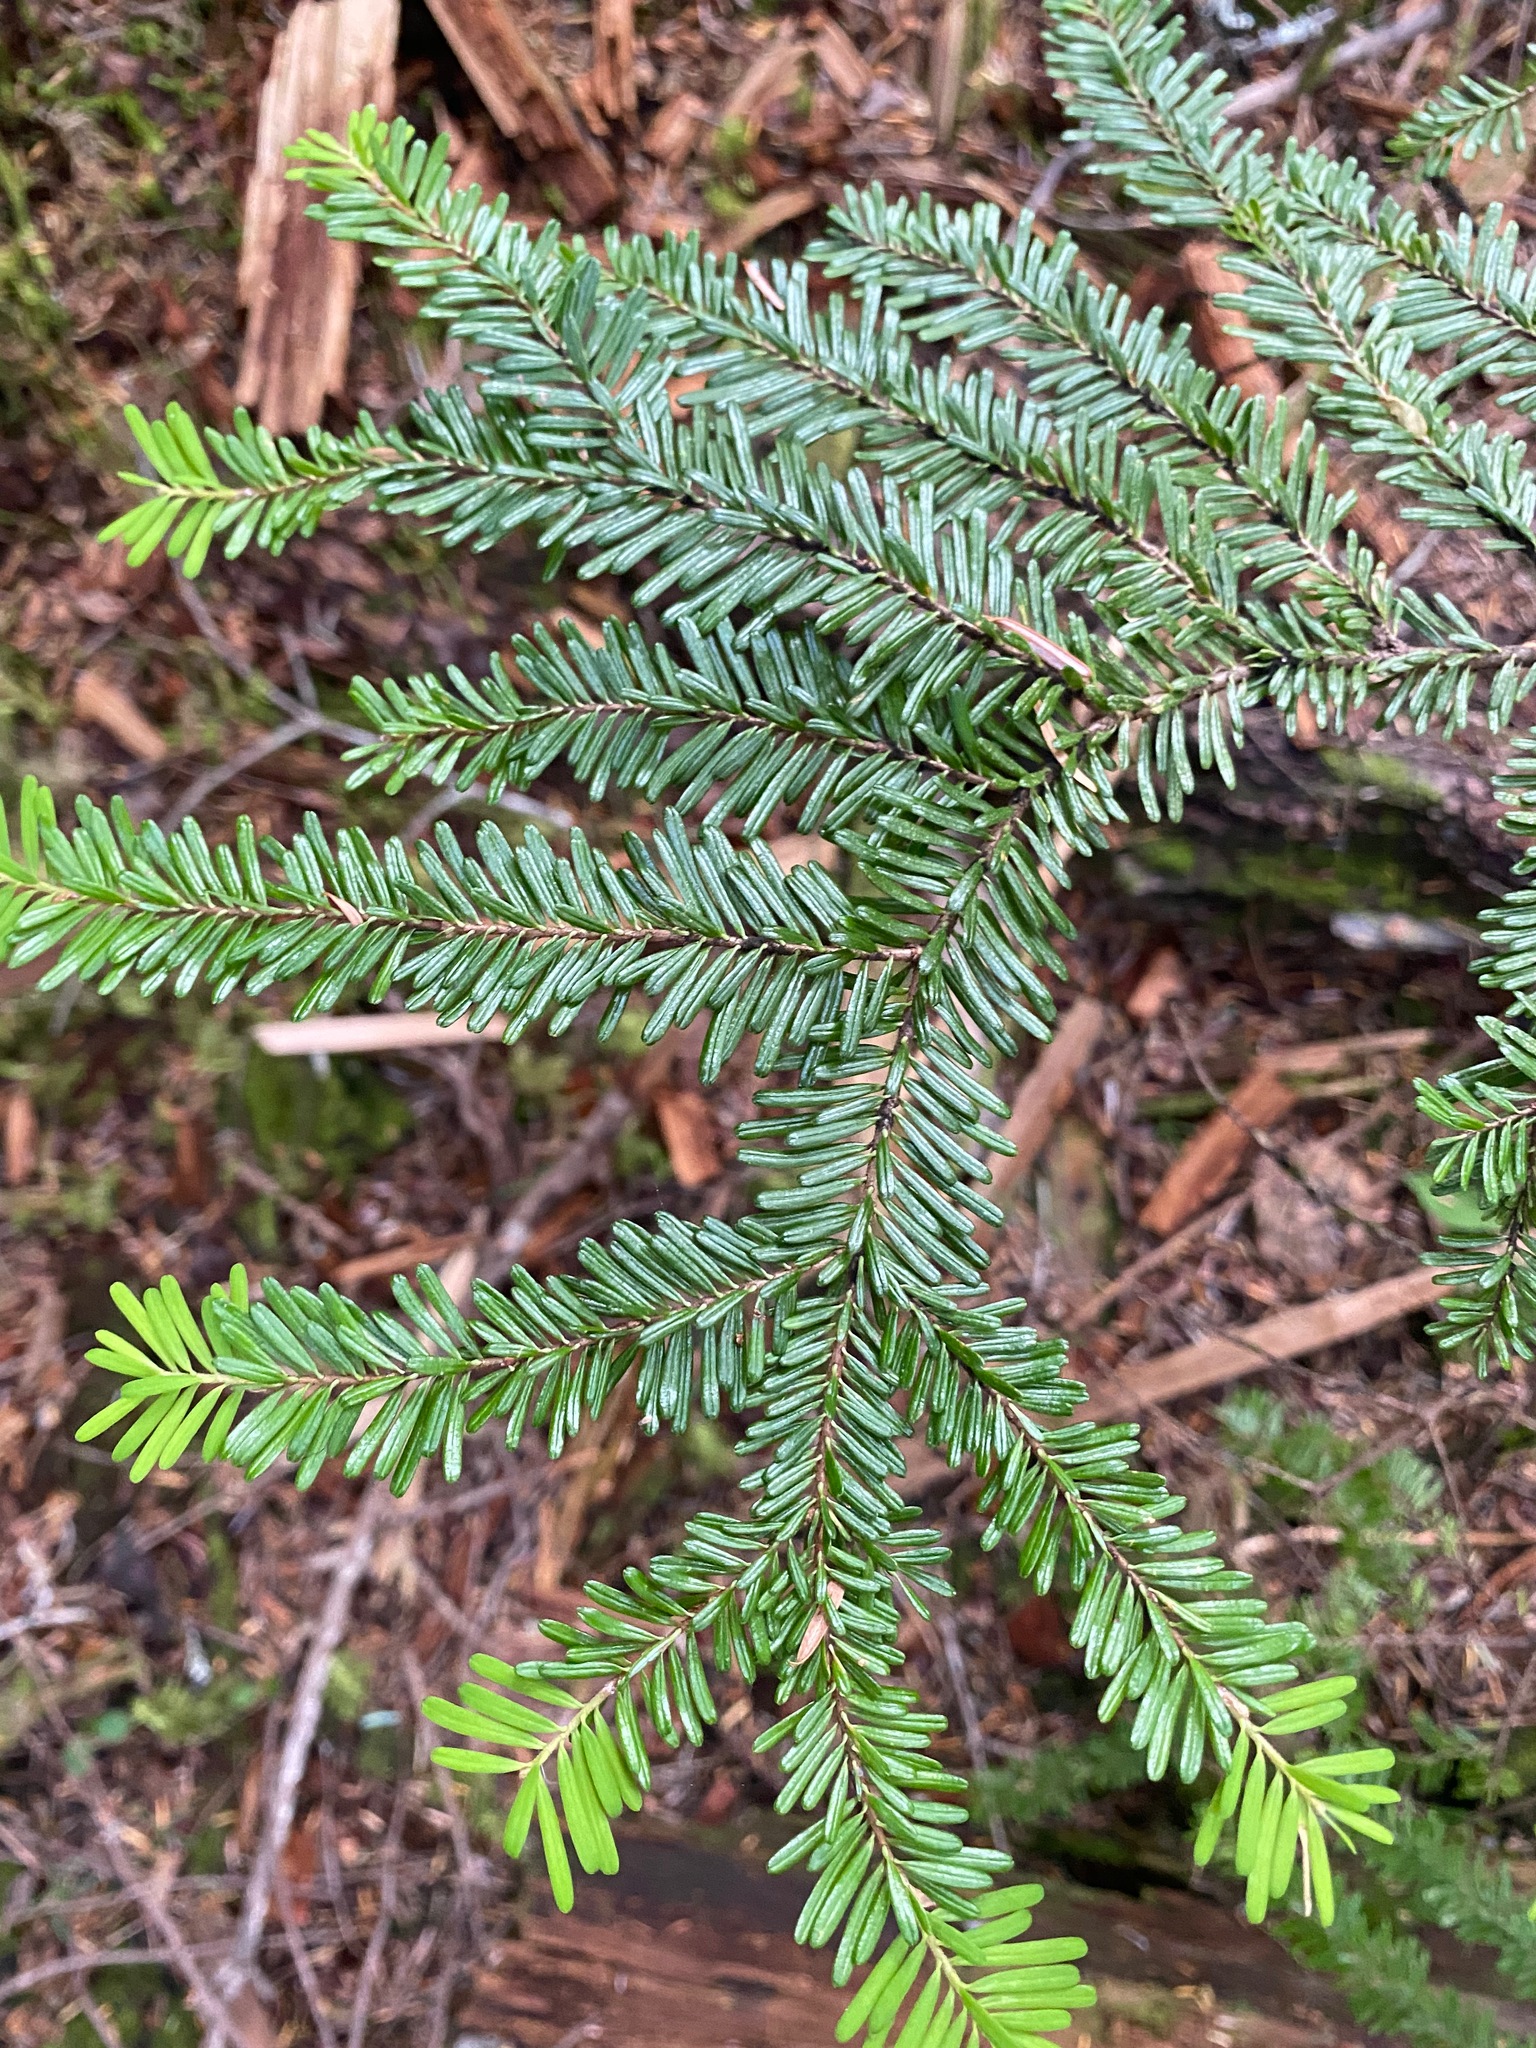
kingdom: Plantae
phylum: Tracheophyta
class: Pinopsida
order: Pinales
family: Pinaceae
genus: Abies
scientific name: Abies amabilis
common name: Pacific silver fir
